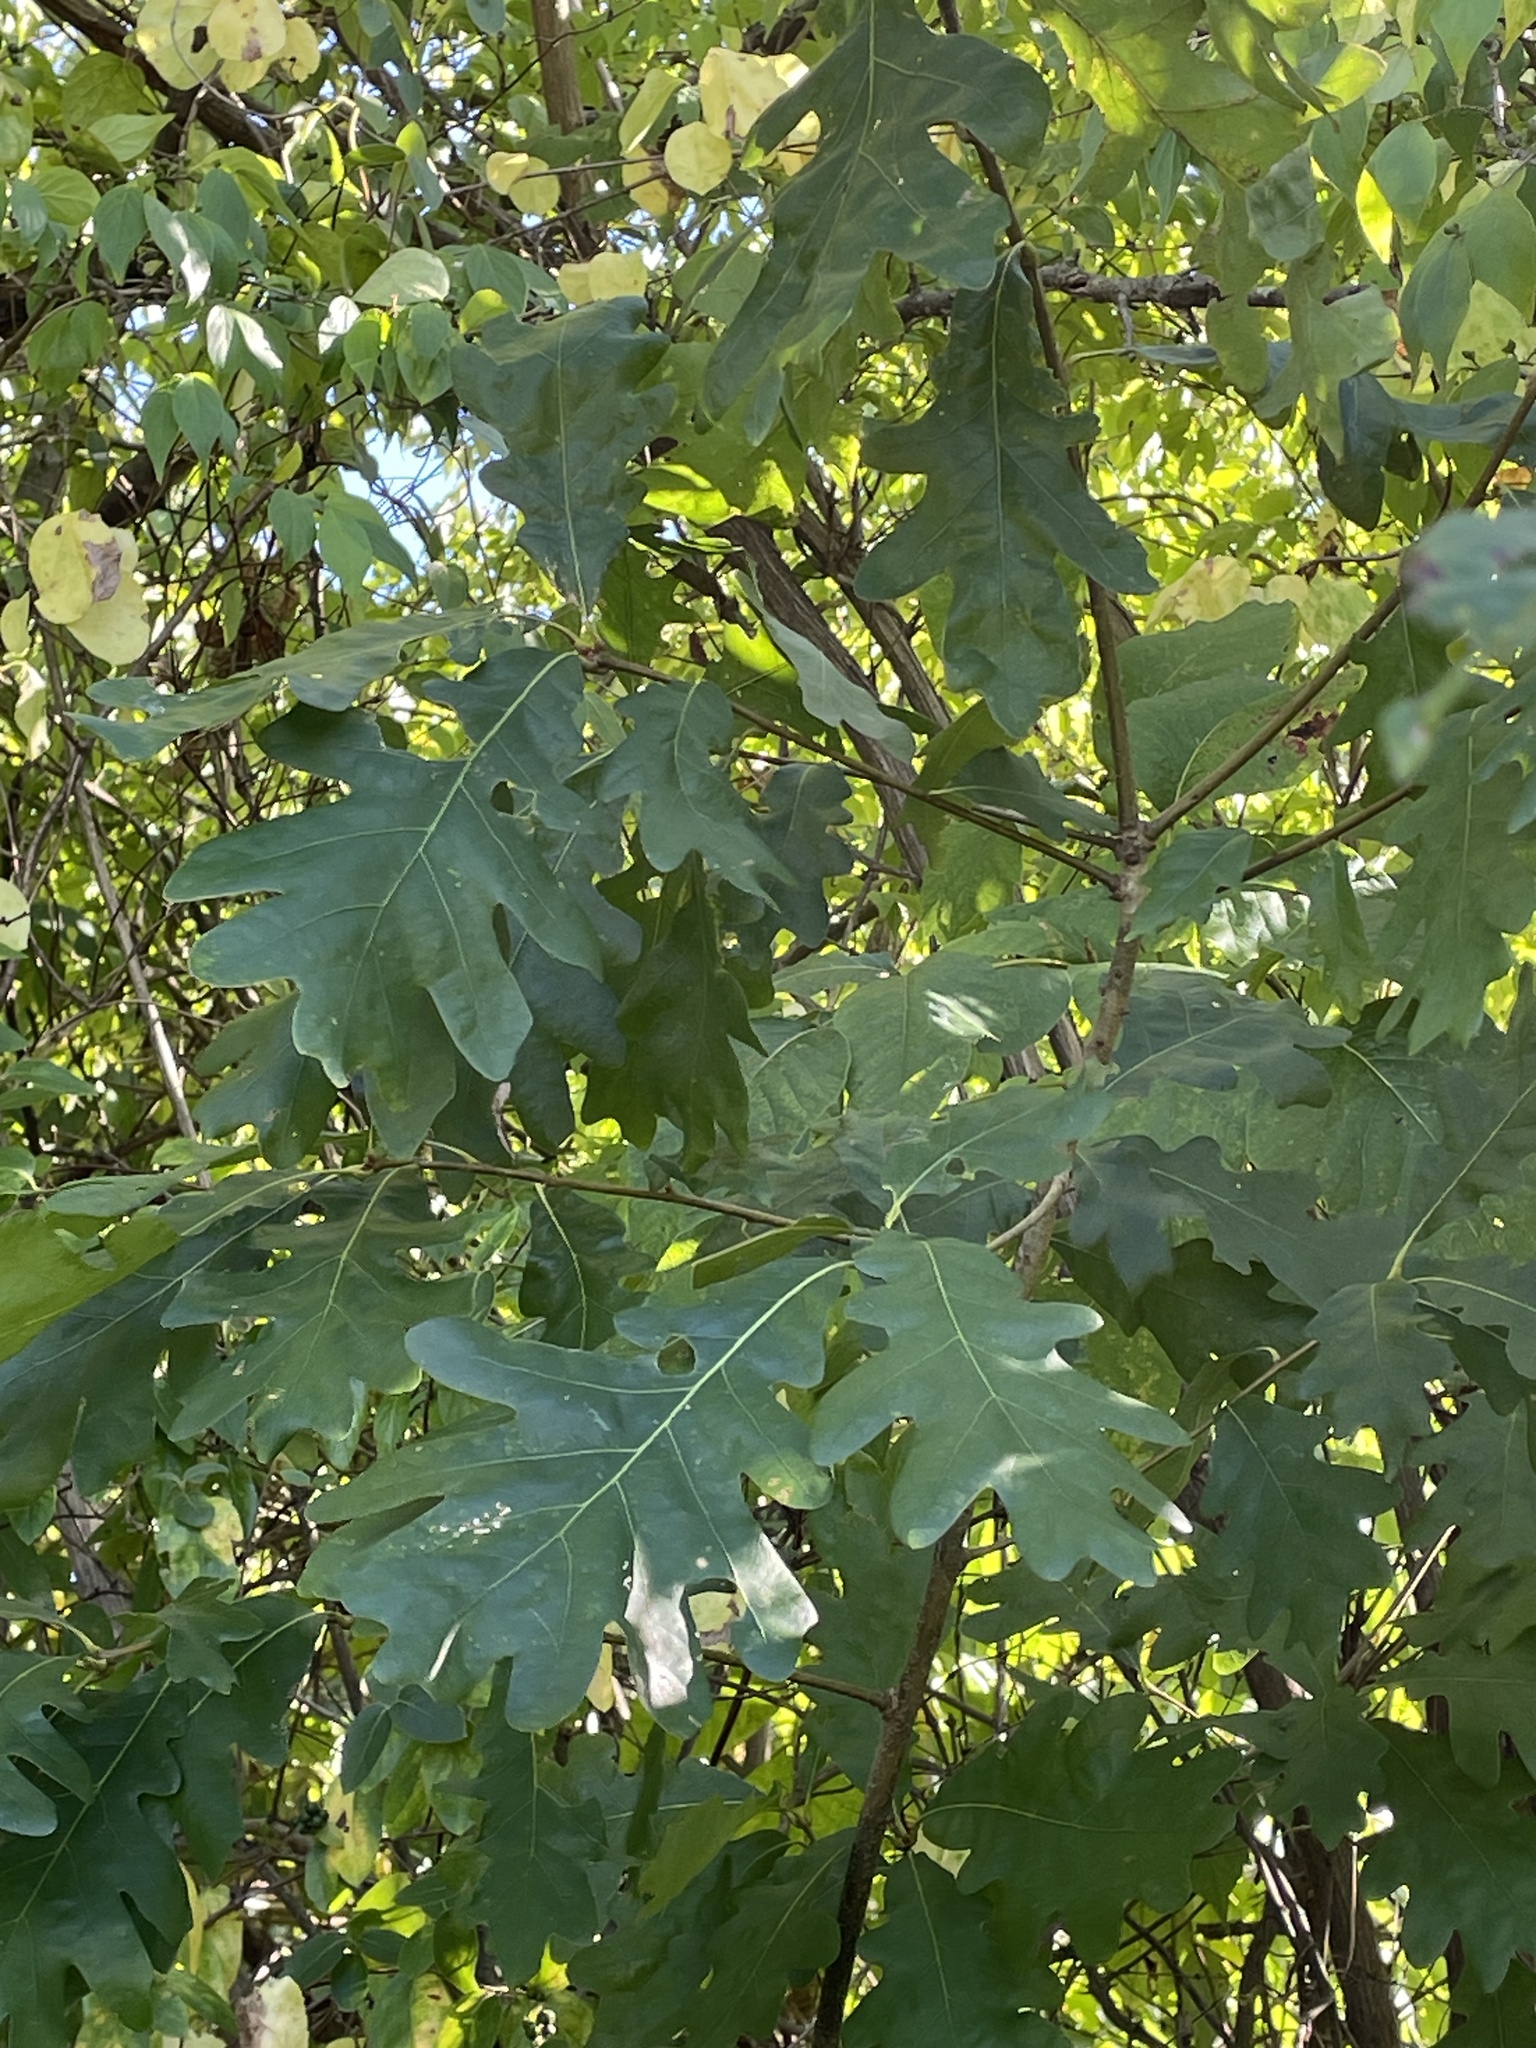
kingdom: Plantae
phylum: Tracheophyta
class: Magnoliopsida
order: Fagales
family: Fagaceae
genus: Quercus
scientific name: Quercus alba
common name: White oak
